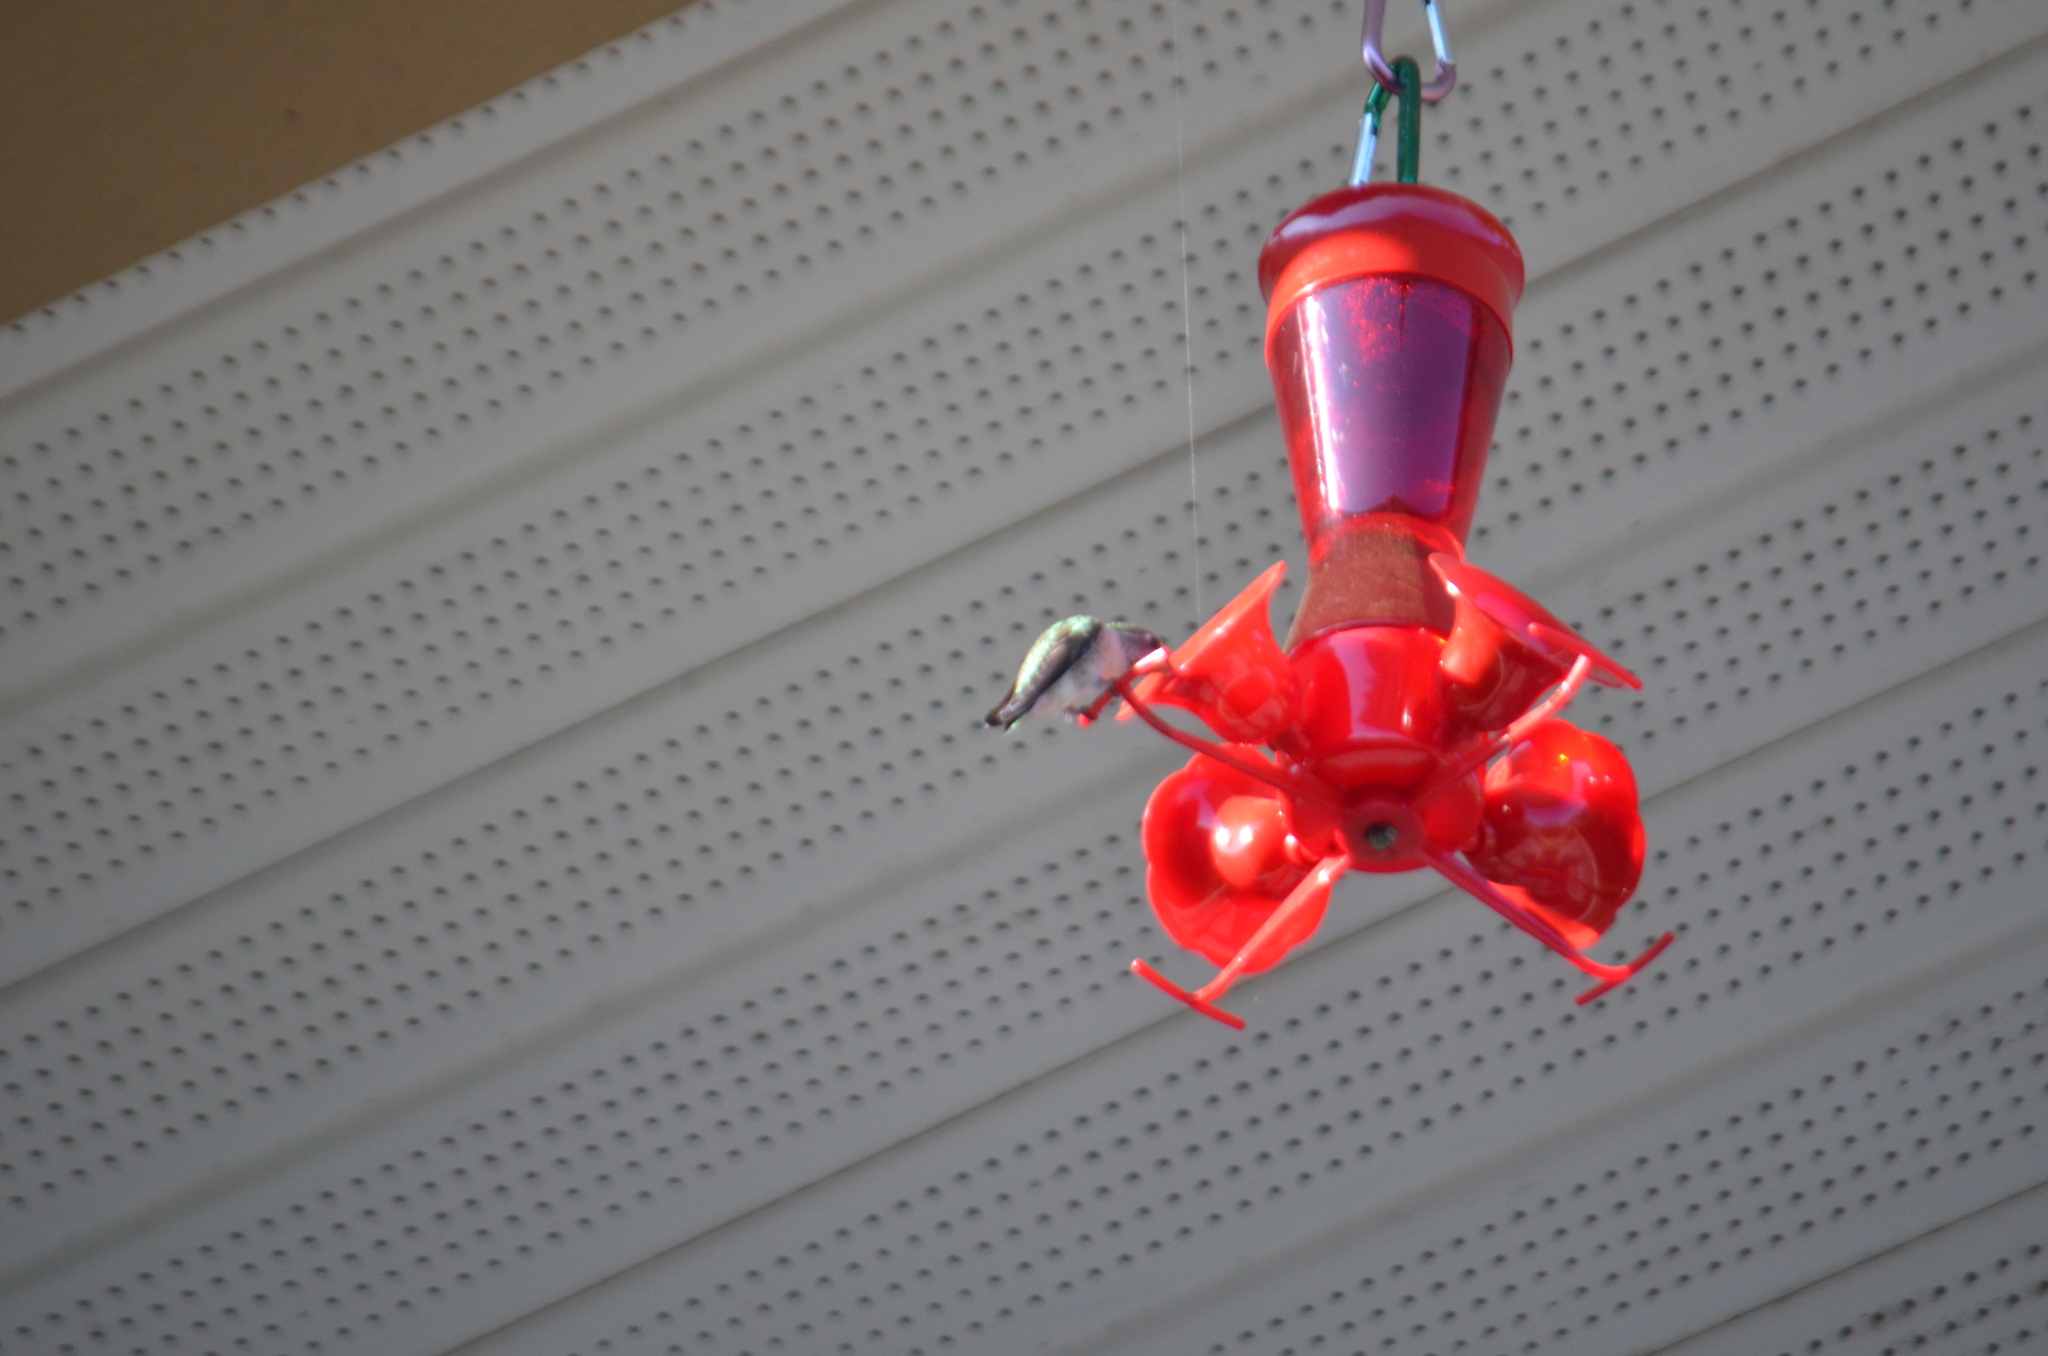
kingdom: Animalia
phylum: Chordata
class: Aves
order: Apodiformes
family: Trochilidae
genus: Calypte
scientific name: Calypte anna
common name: Anna's hummingbird
